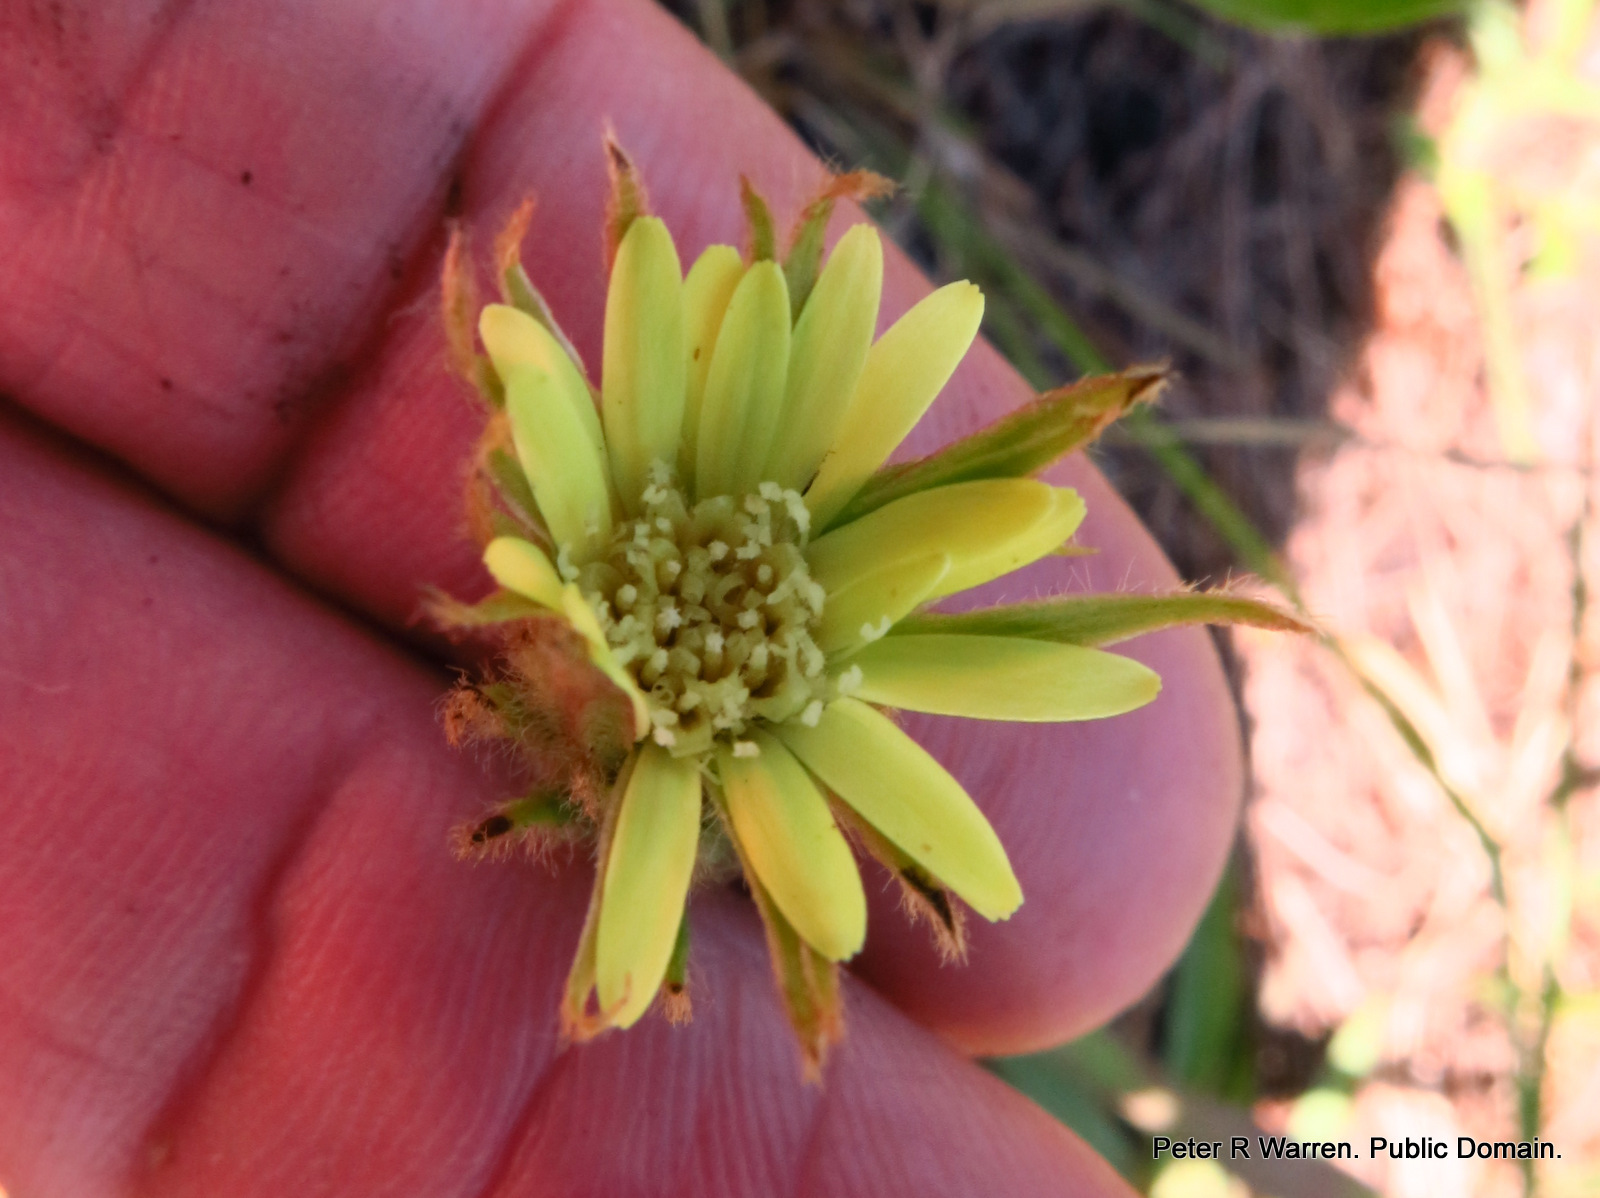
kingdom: Plantae
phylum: Tracheophyta
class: Magnoliopsida
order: Asterales
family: Asteraceae
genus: Piloselloides
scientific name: Piloselloides hirsuta
